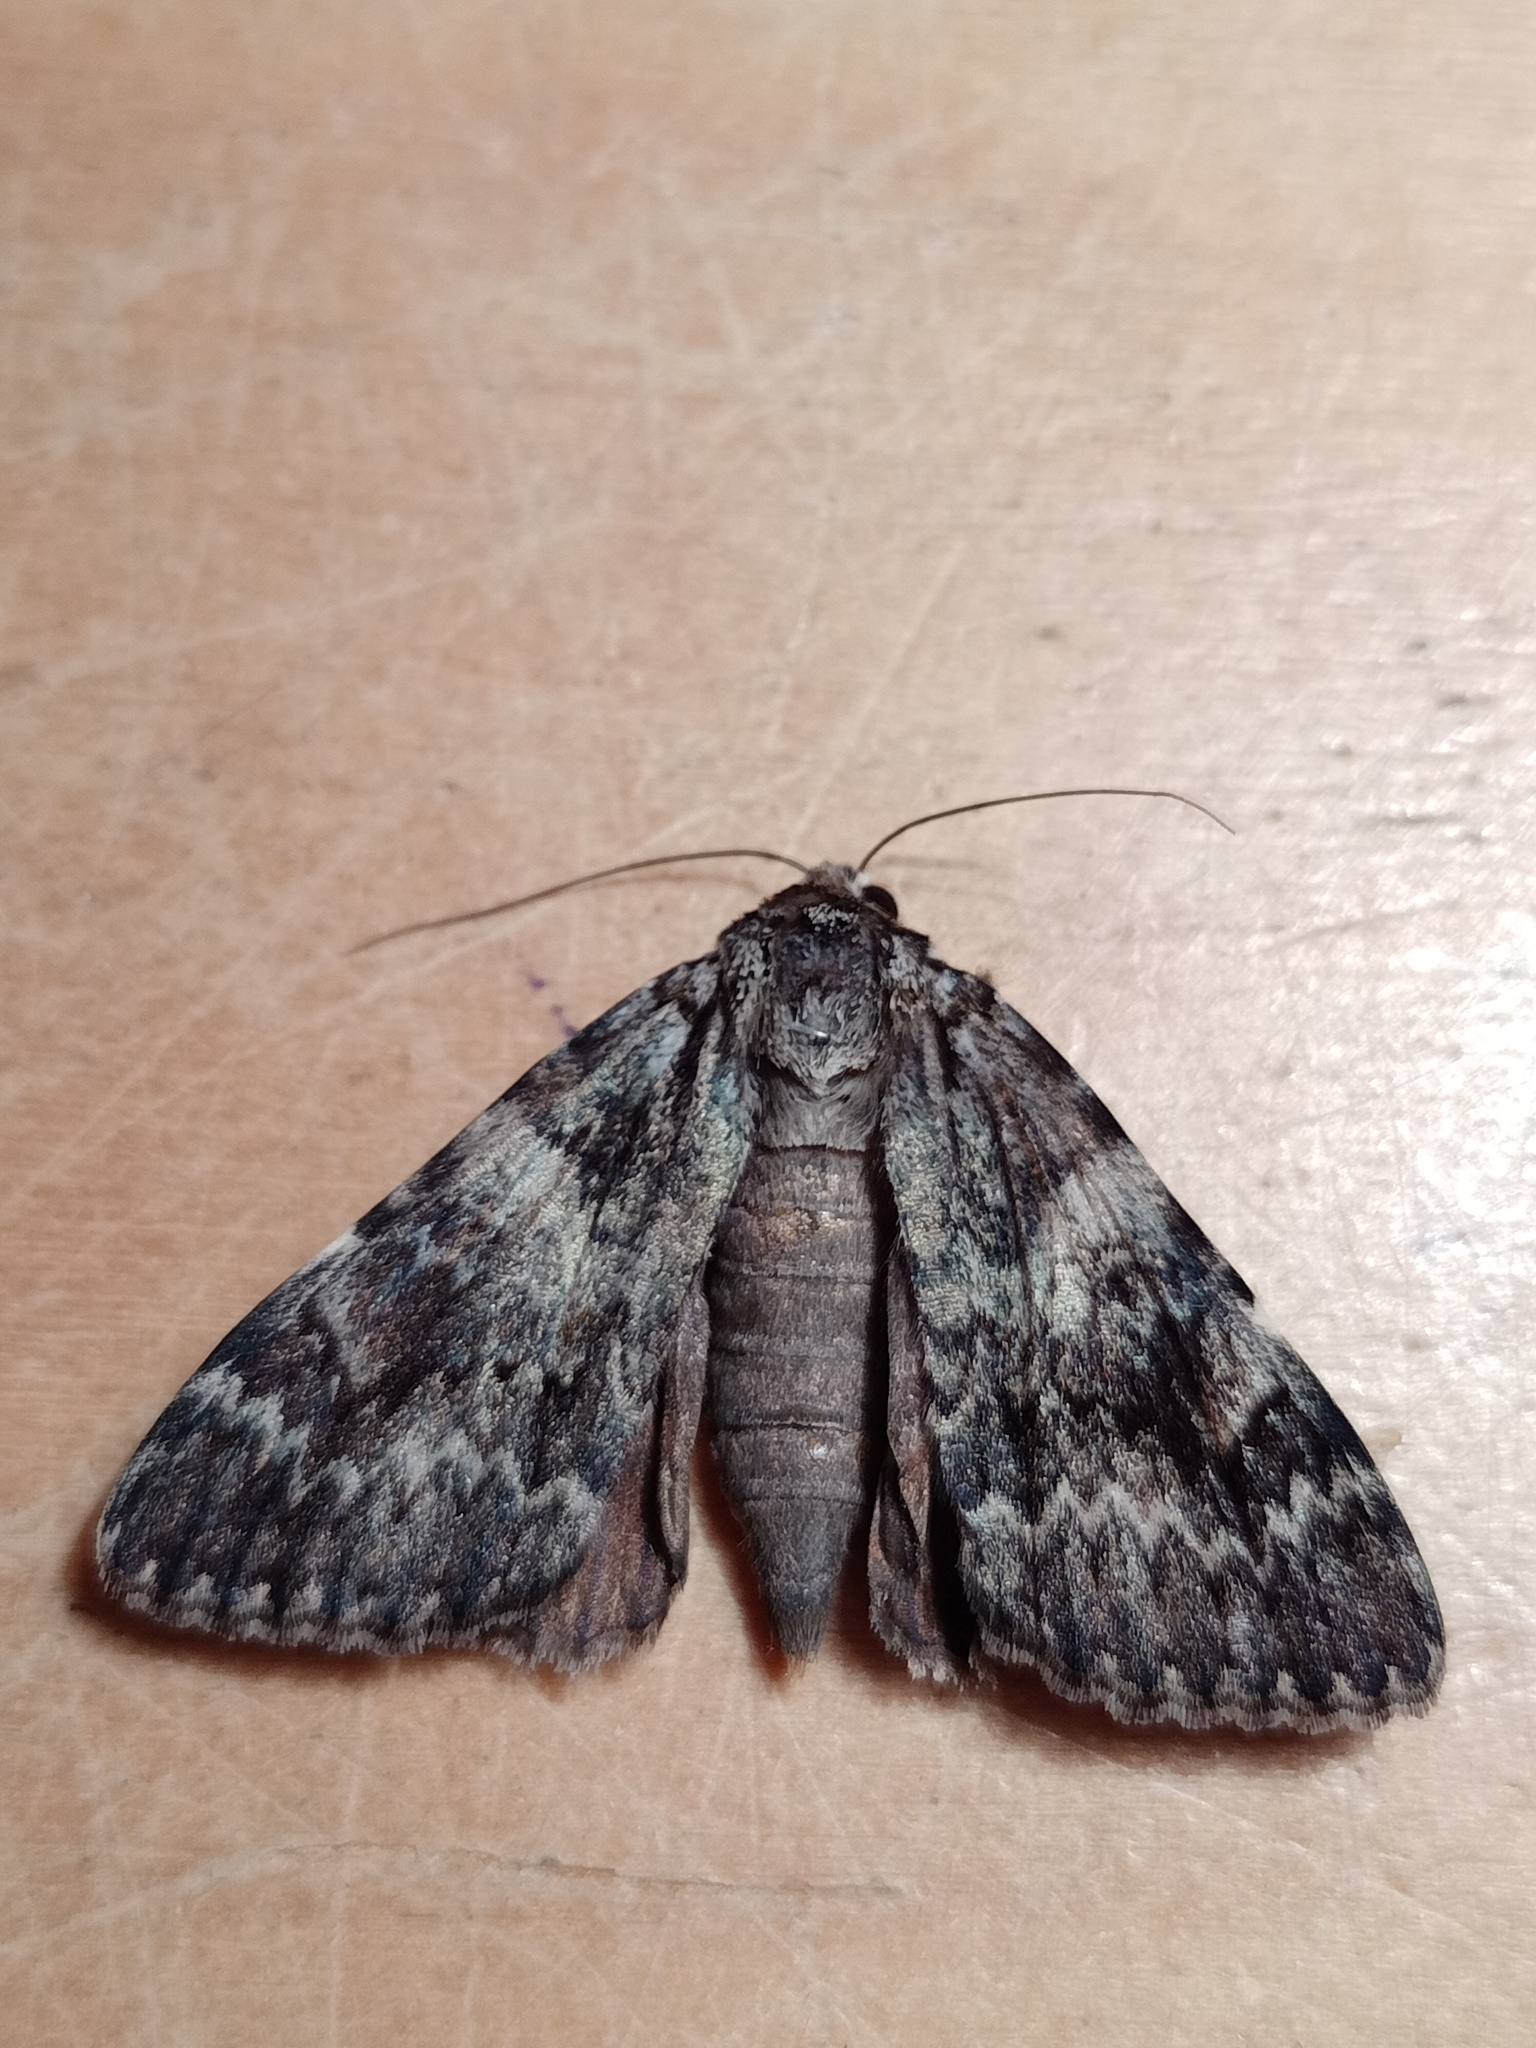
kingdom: Animalia
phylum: Arthropoda
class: Insecta
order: Lepidoptera
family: Erebidae
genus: Catocala
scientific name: Catocala promissa
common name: Light crimson underwing
